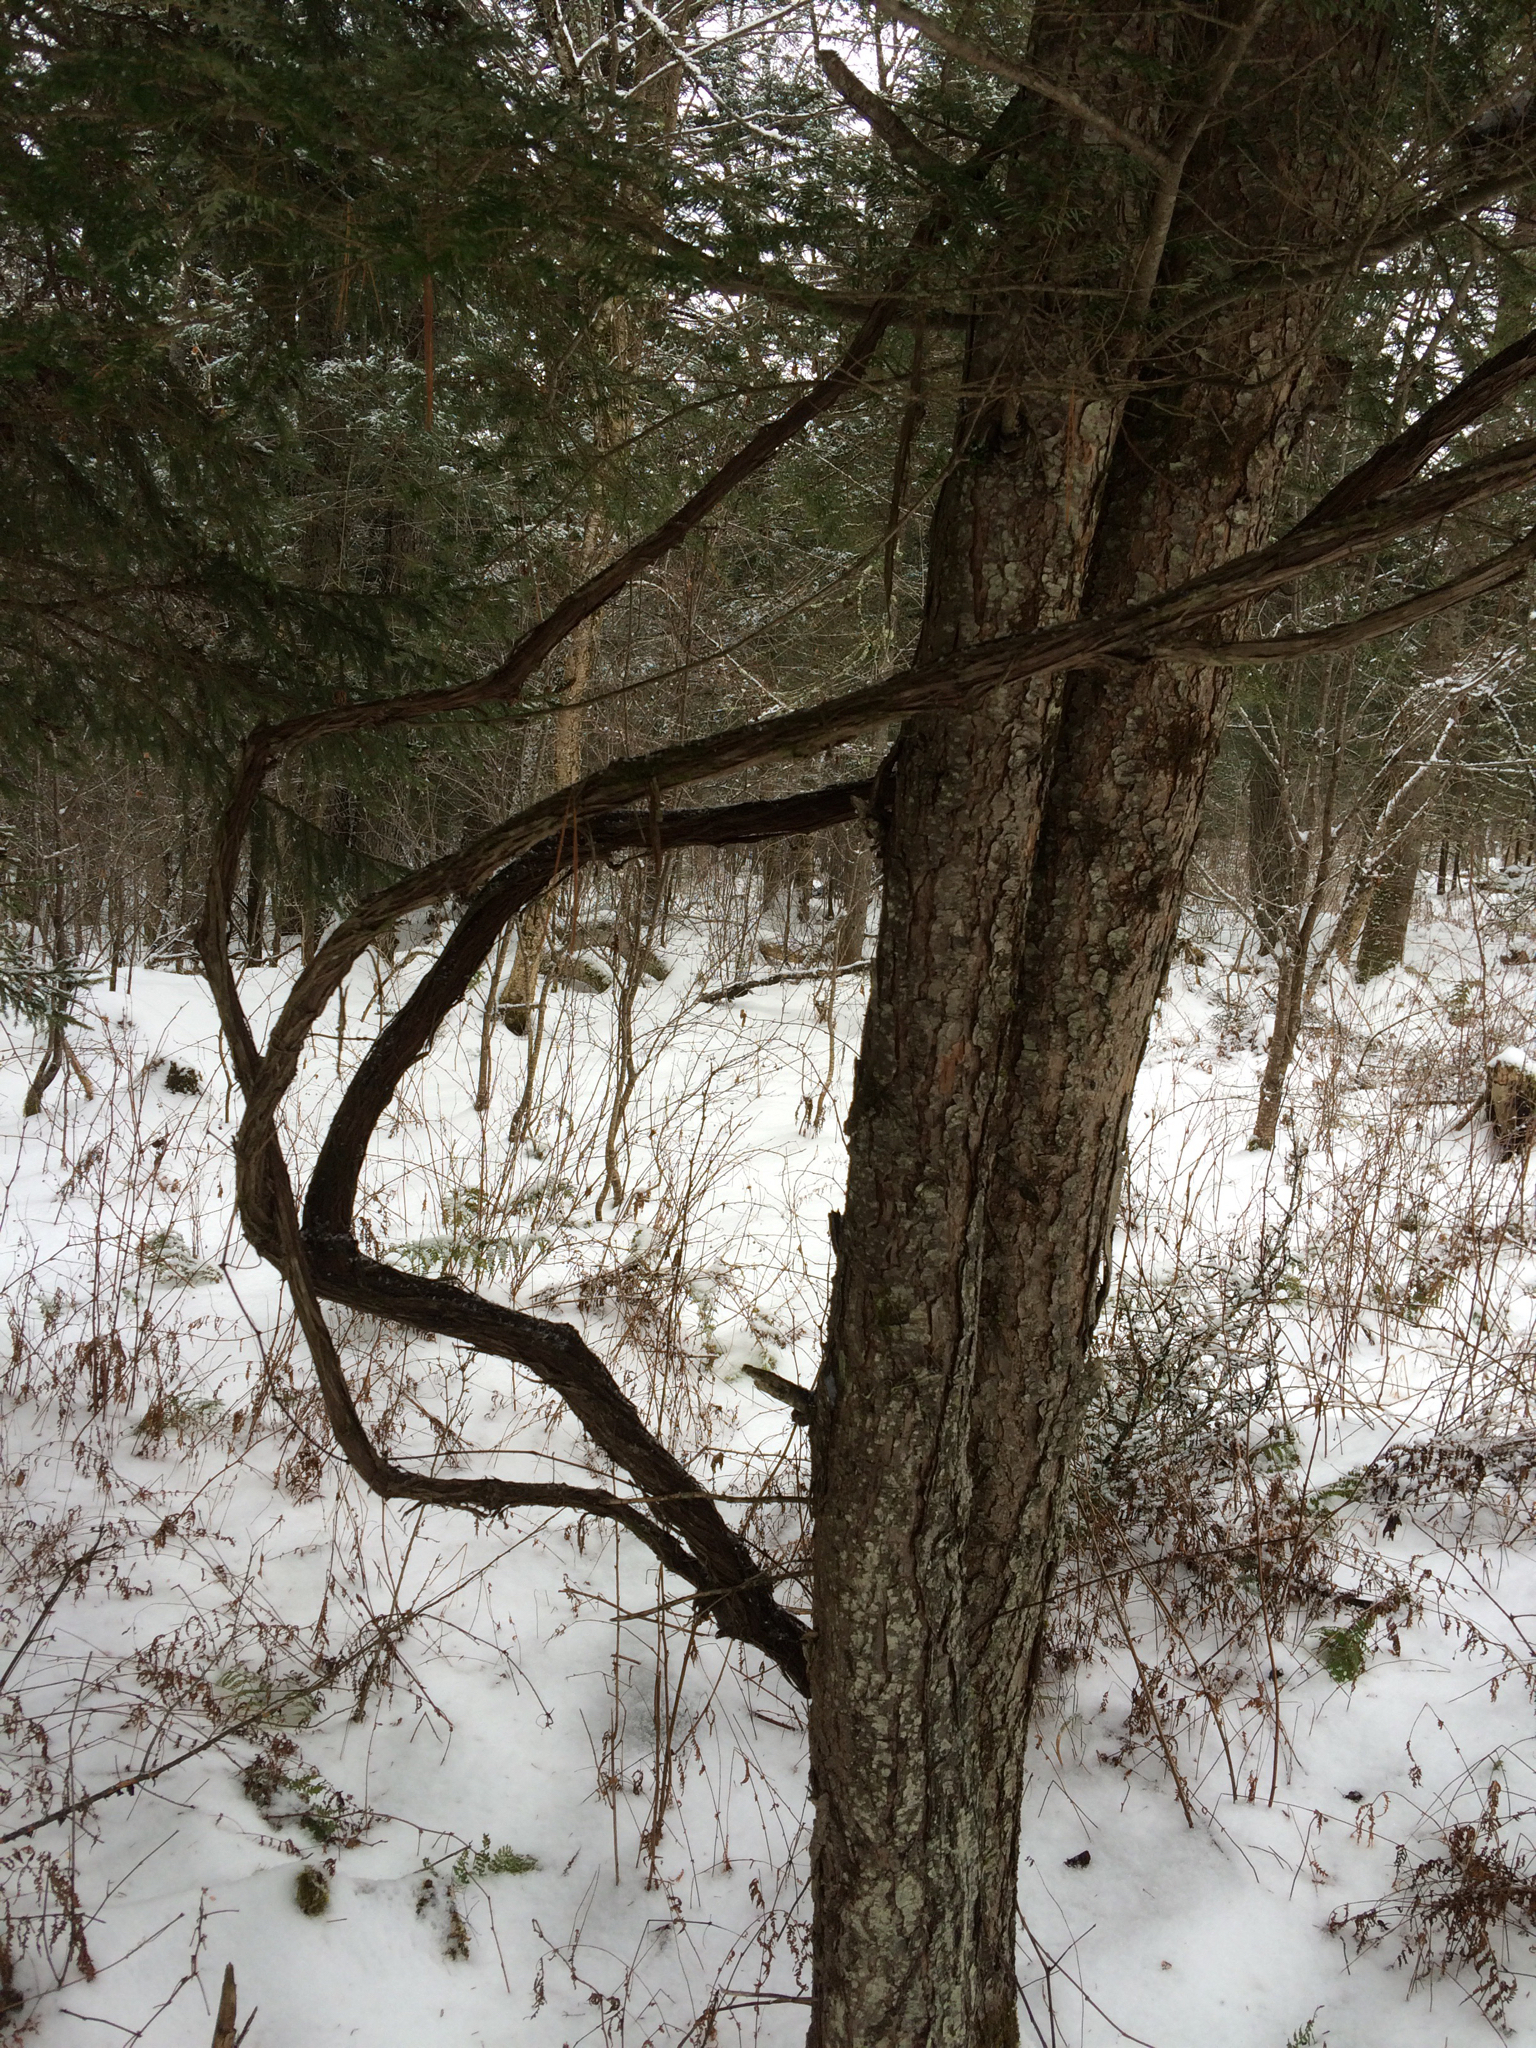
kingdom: Plantae
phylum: Tracheophyta
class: Magnoliopsida
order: Vitales
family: Vitaceae
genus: Vitis
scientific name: Vitis
